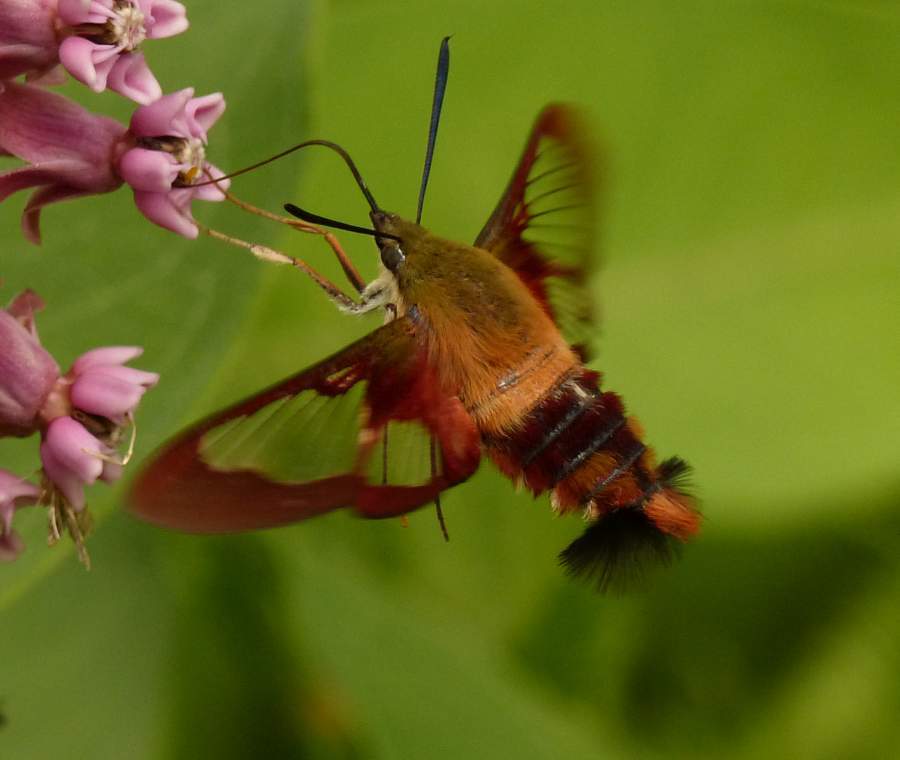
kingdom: Animalia
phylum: Arthropoda
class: Insecta
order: Lepidoptera
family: Sphingidae
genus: Hemaris
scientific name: Hemaris thysbe
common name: Common clear-wing
